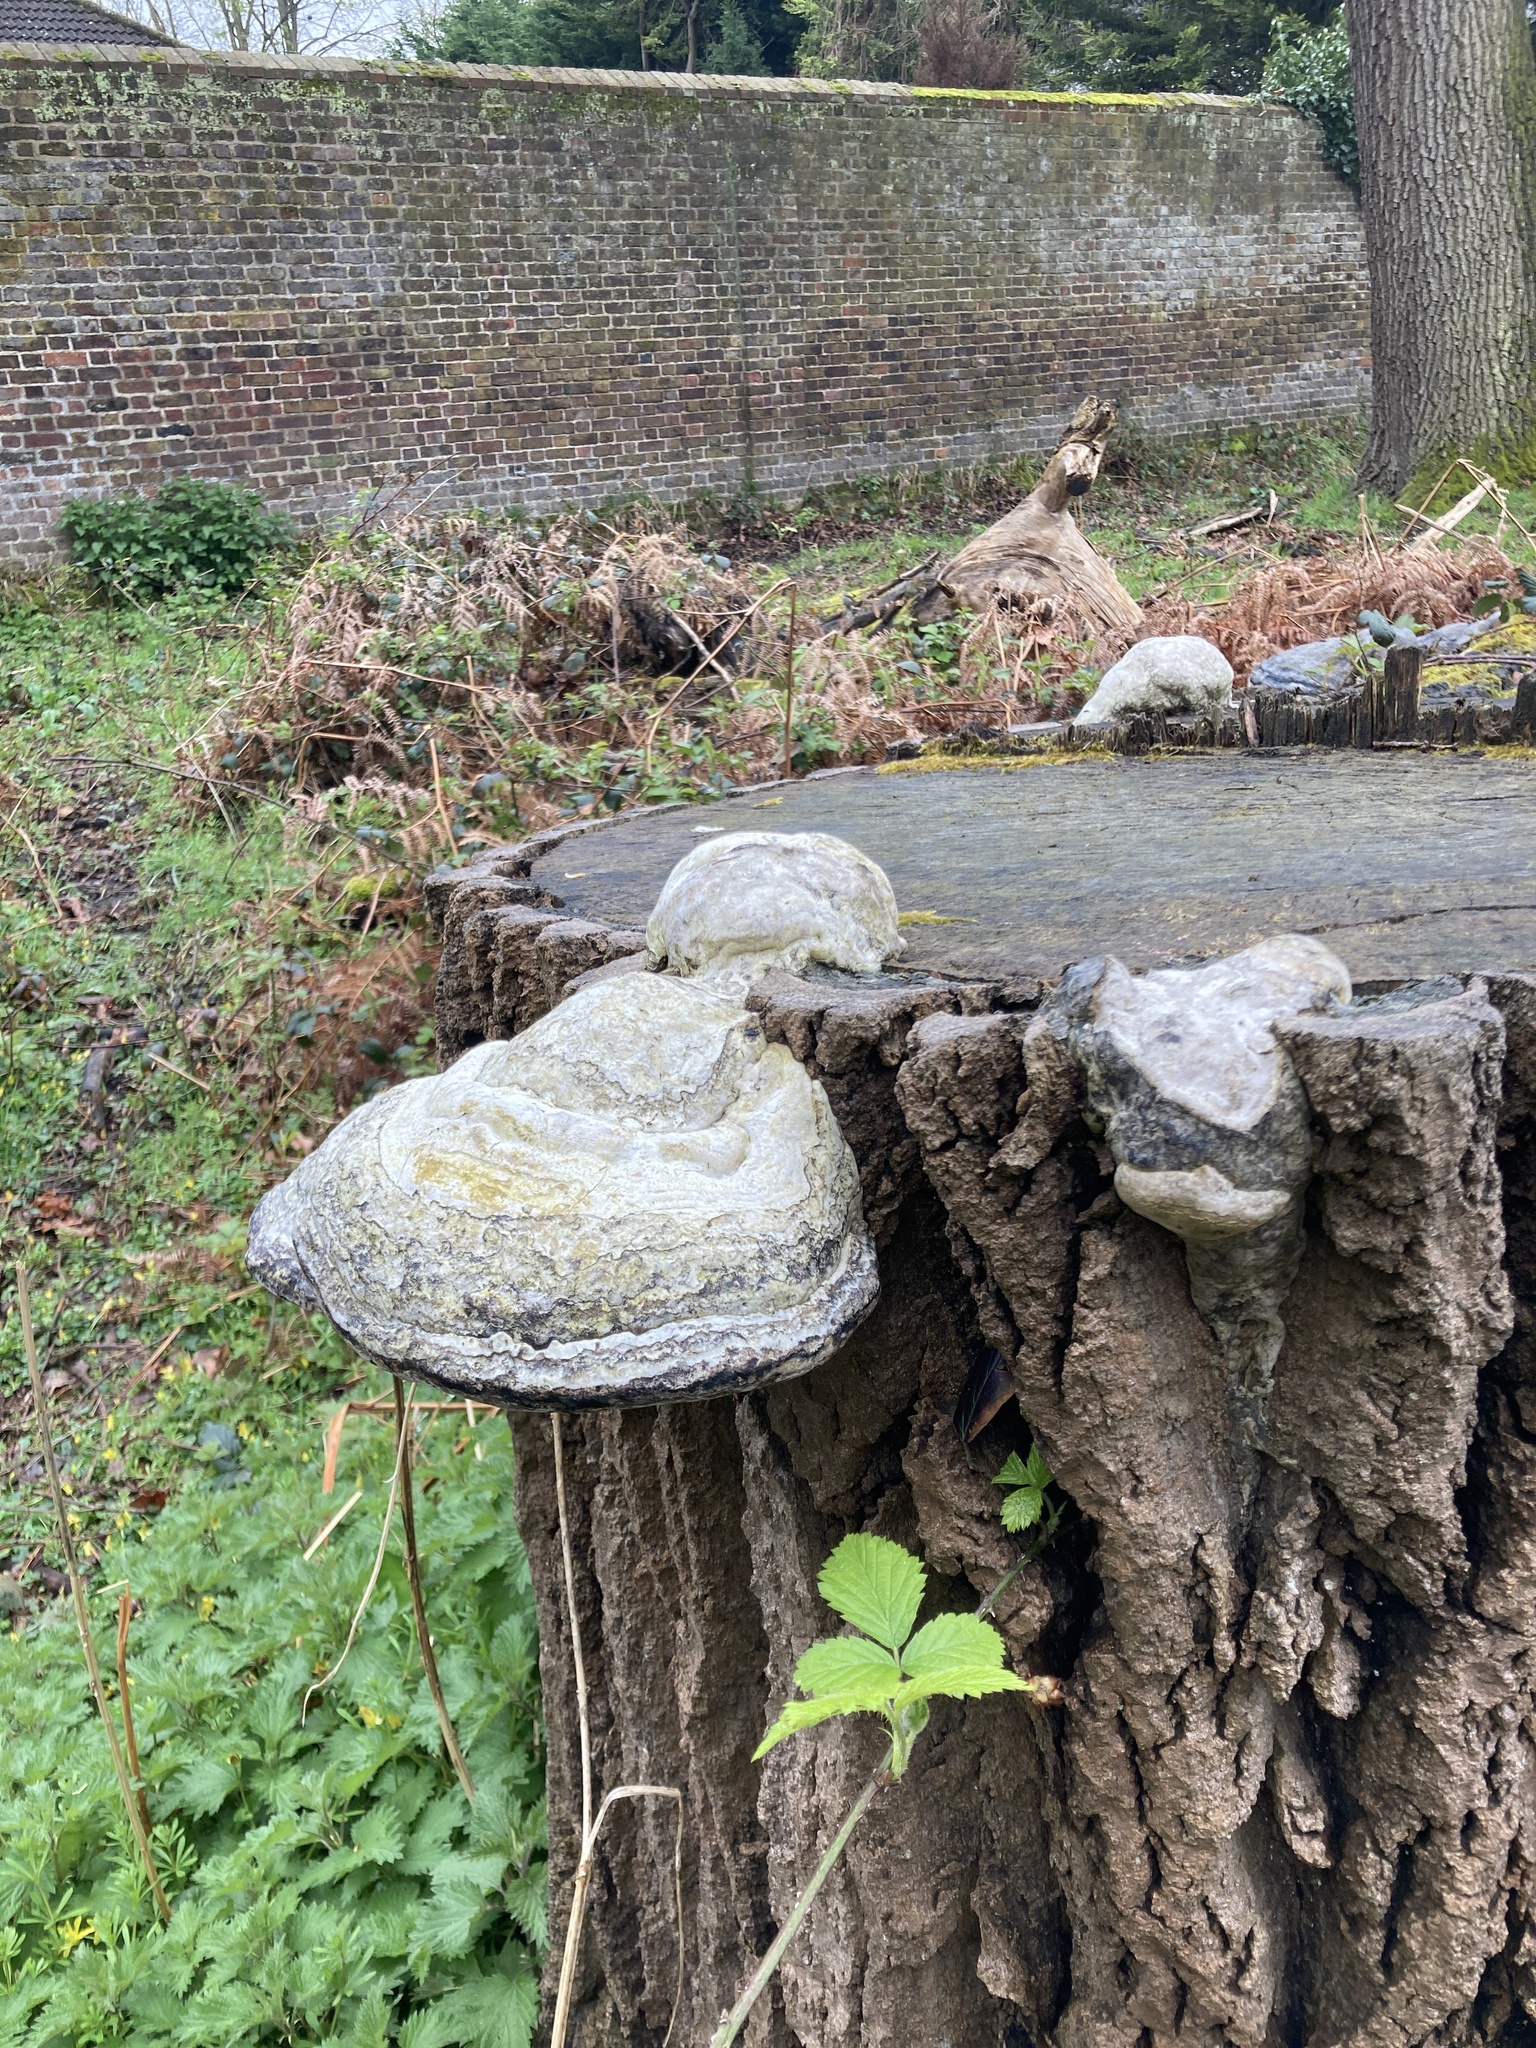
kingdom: Fungi
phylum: Basidiomycota
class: Agaricomycetes
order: Polyporales
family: Polyporaceae
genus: Fomes
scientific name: Fomes fomentarius
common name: Hoof fungus
